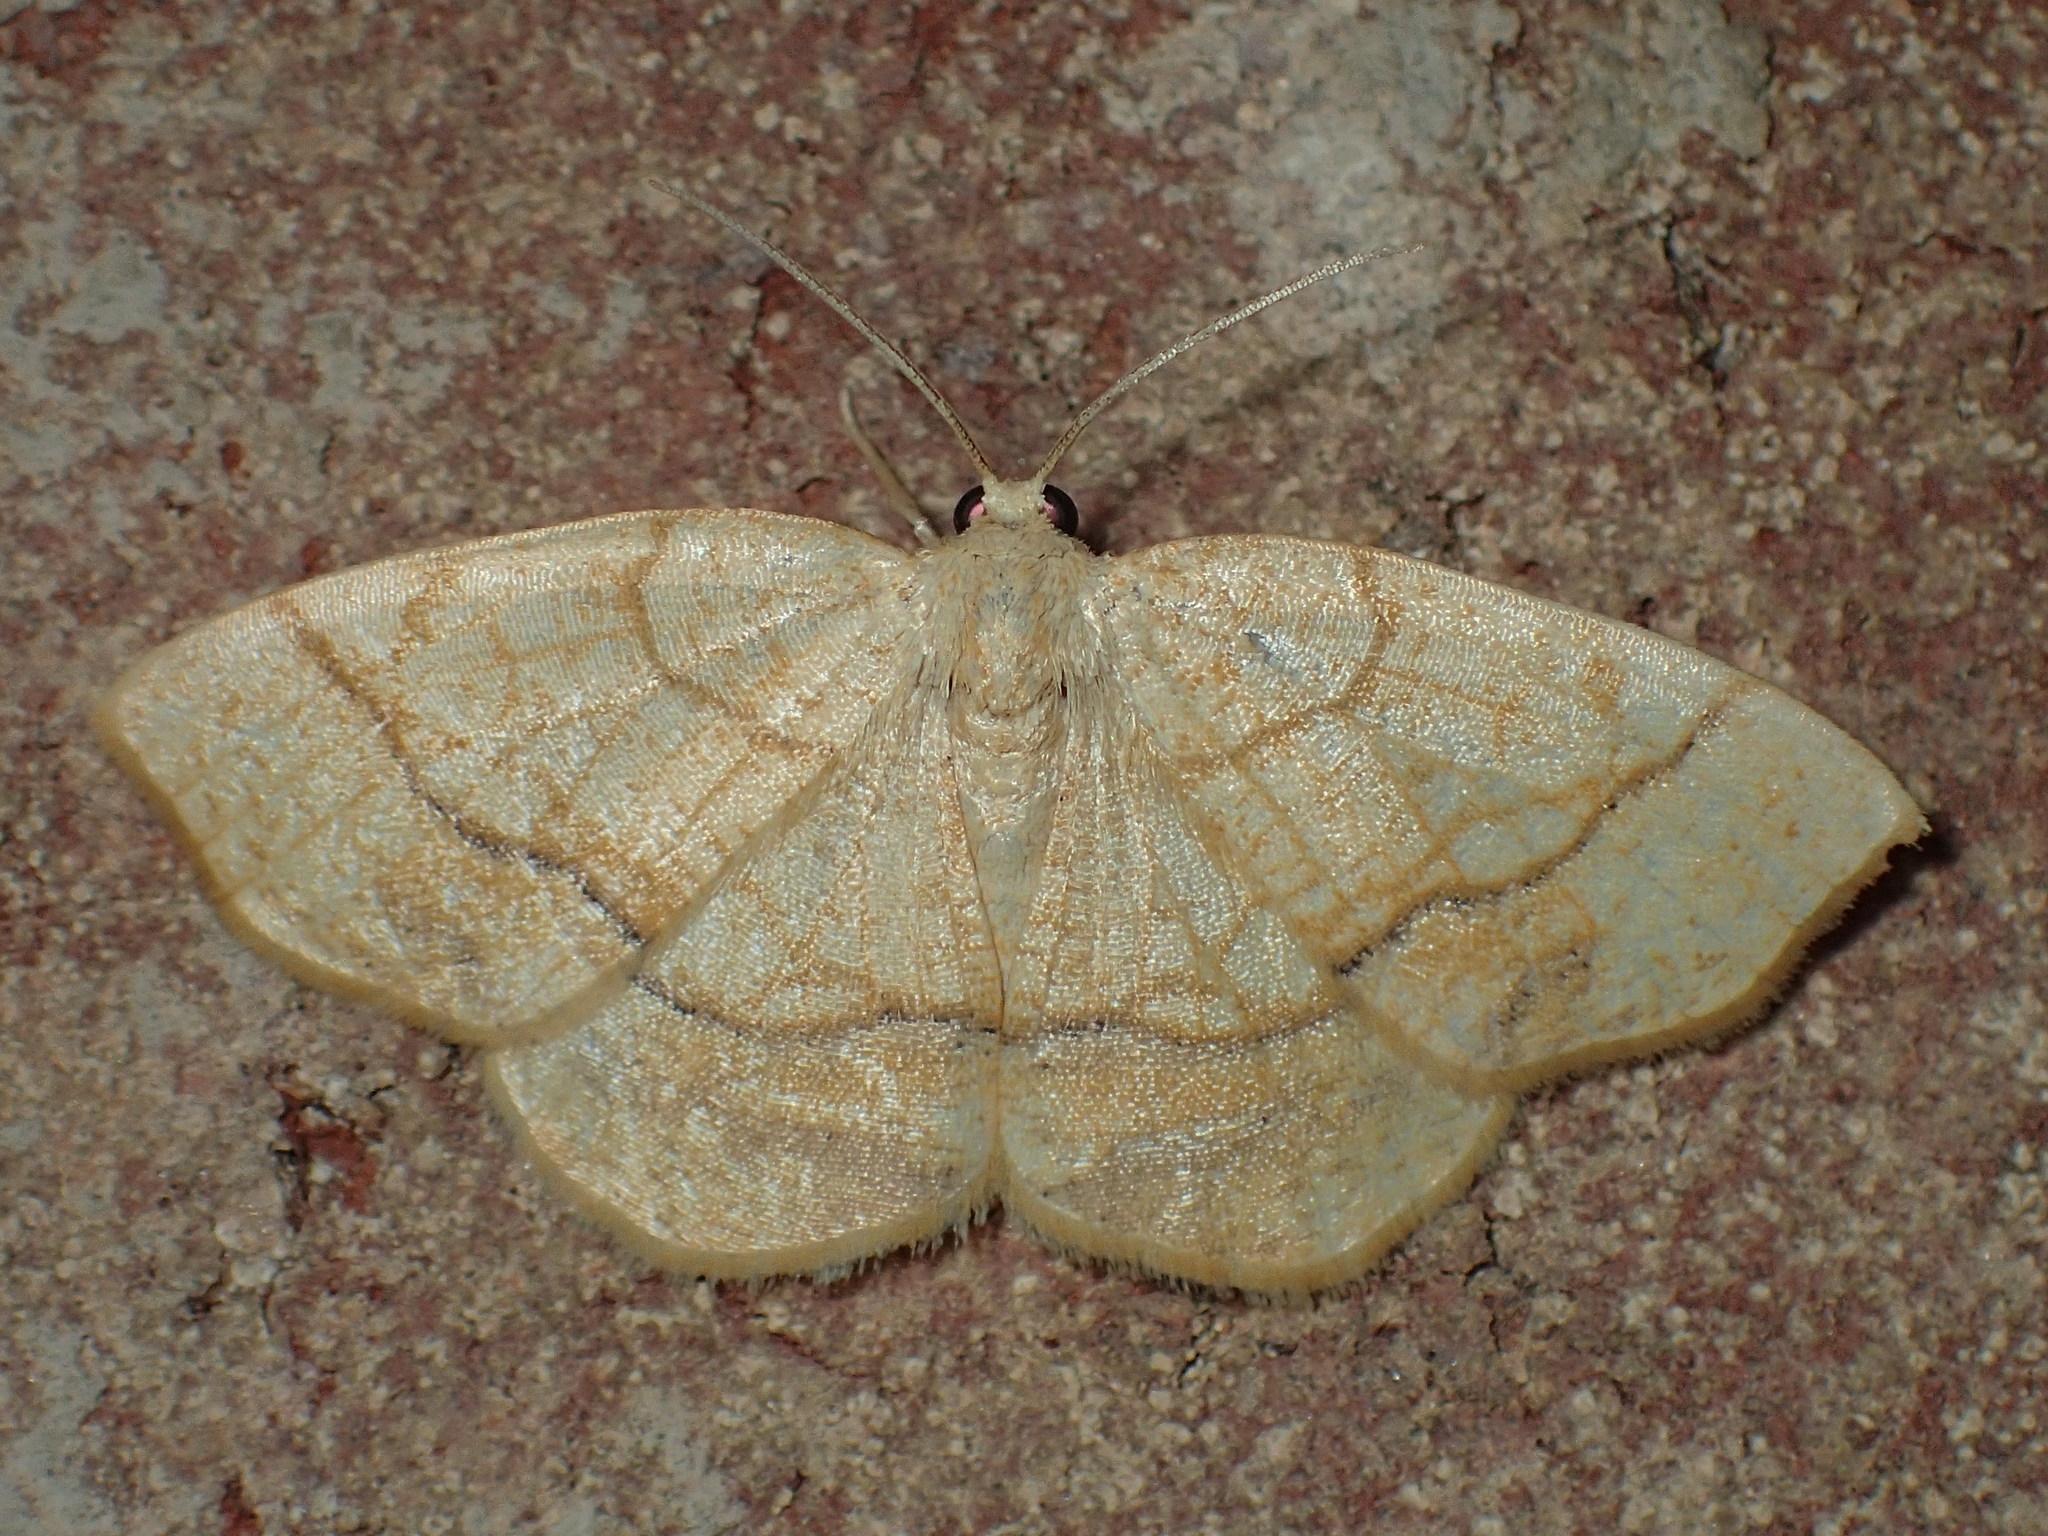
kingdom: Animalia
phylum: Arthropoda
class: Insecta
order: Lepidoptera
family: Geometridae
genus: Nematocampa
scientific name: Nematocampa resistaria
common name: Horned spanworm moth
